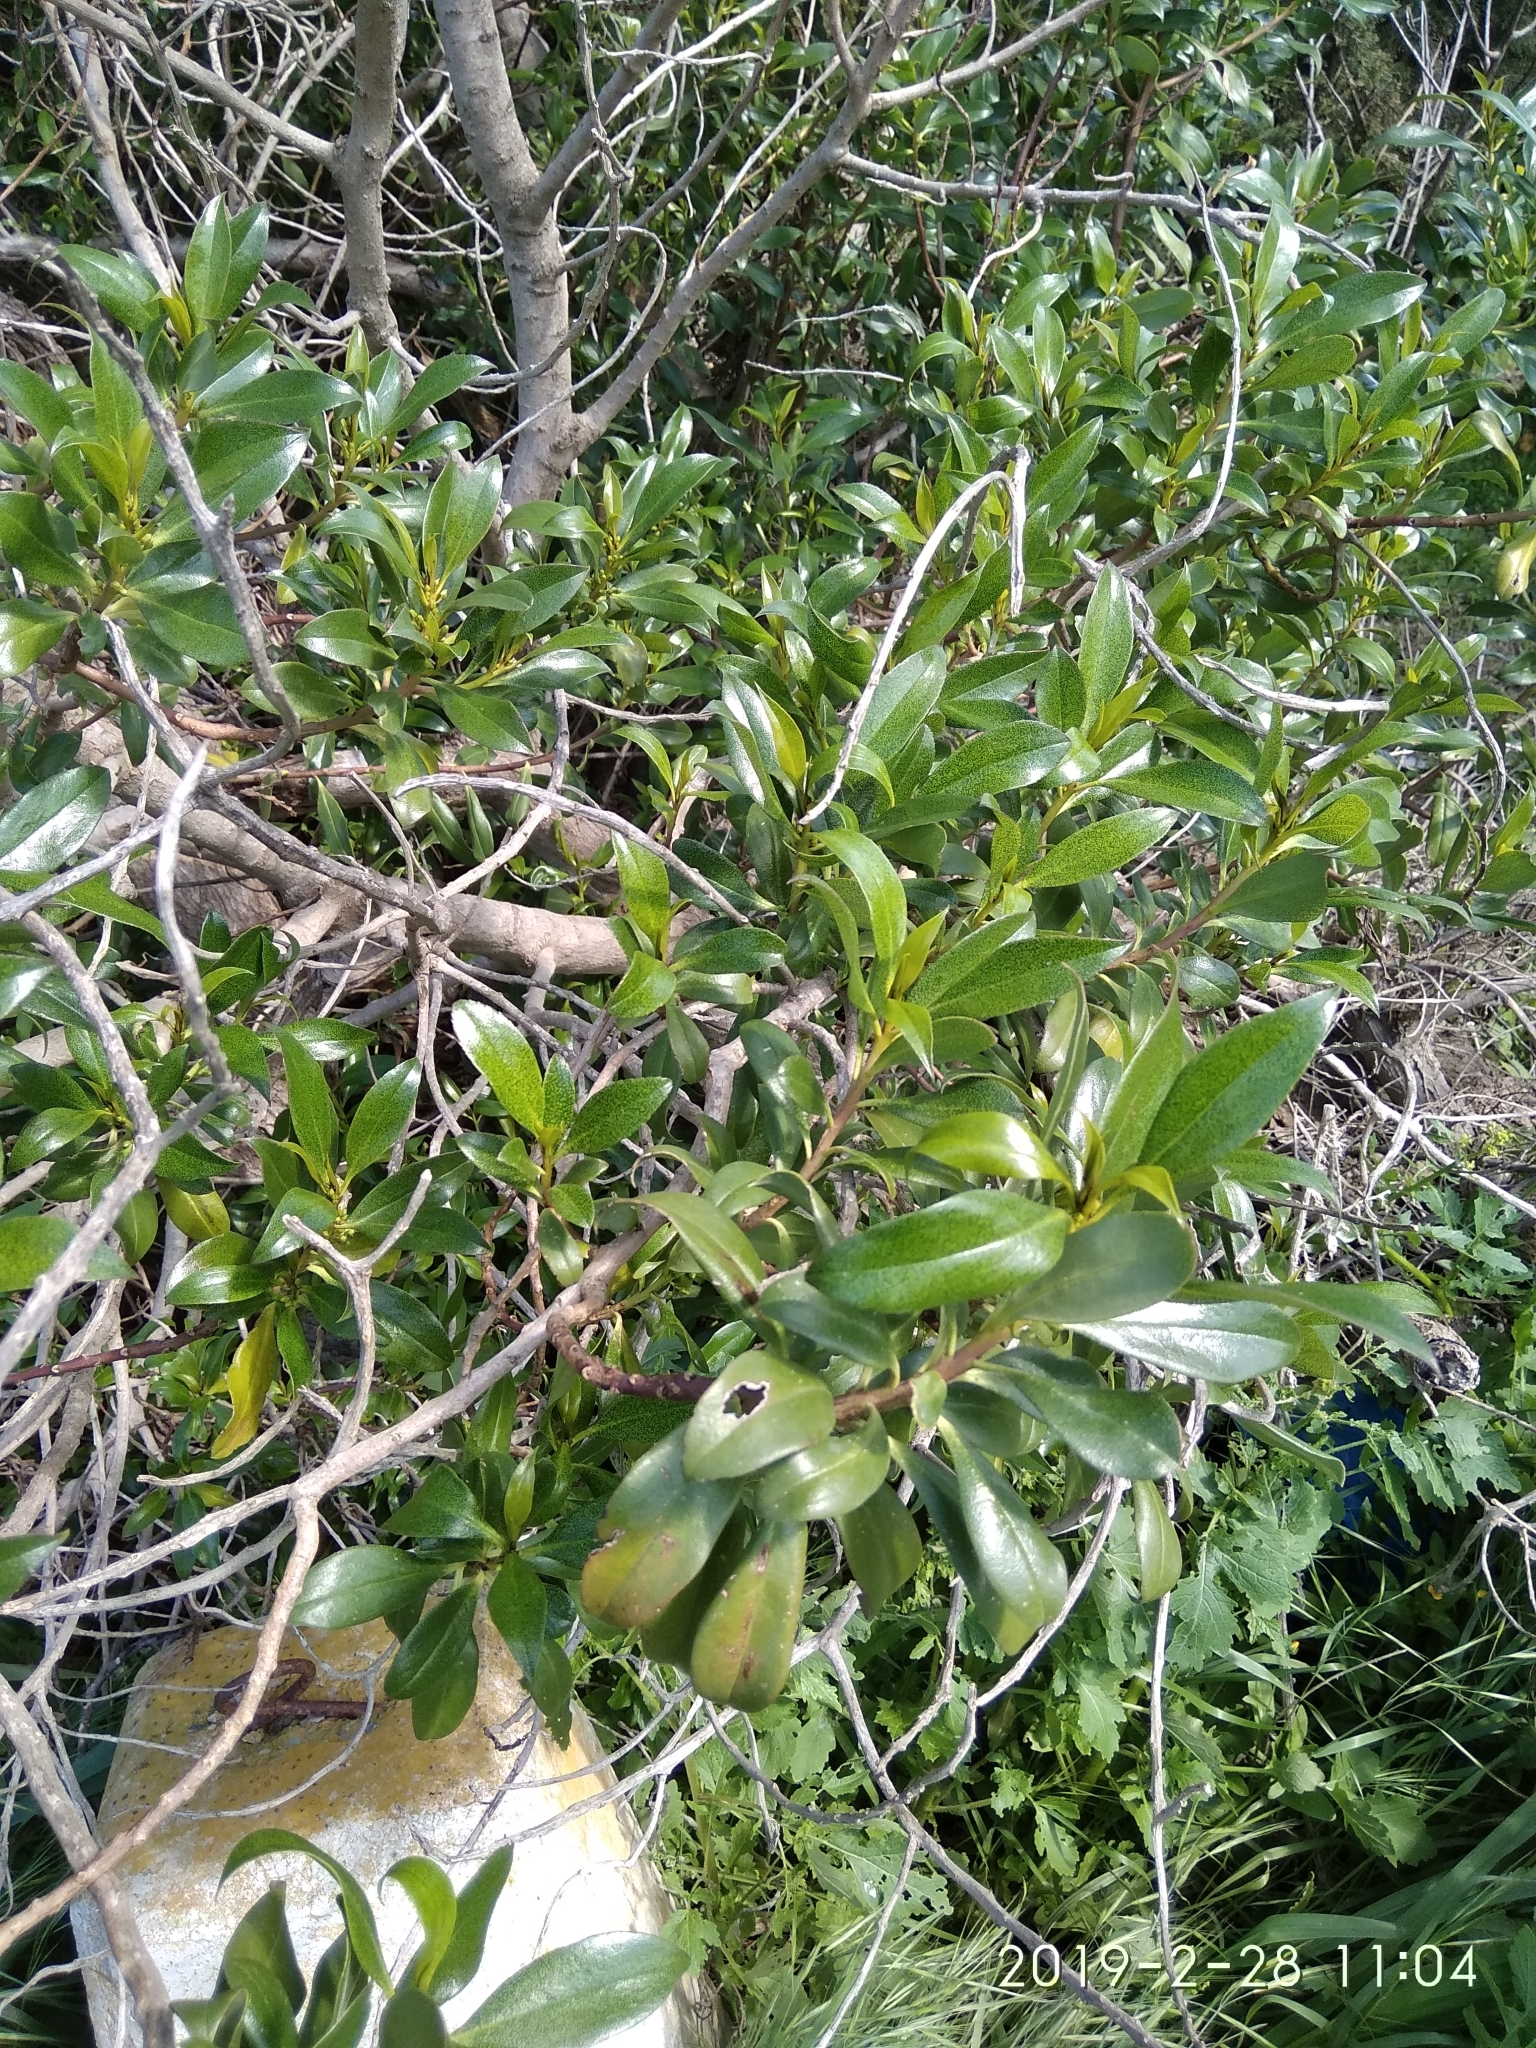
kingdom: Plantae
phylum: Tracheophyta
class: Magnoliopsida
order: Lamiales
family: Scrophulariaceae
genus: Myoporum
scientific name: Myoporum laetum
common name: Ngaio tree
